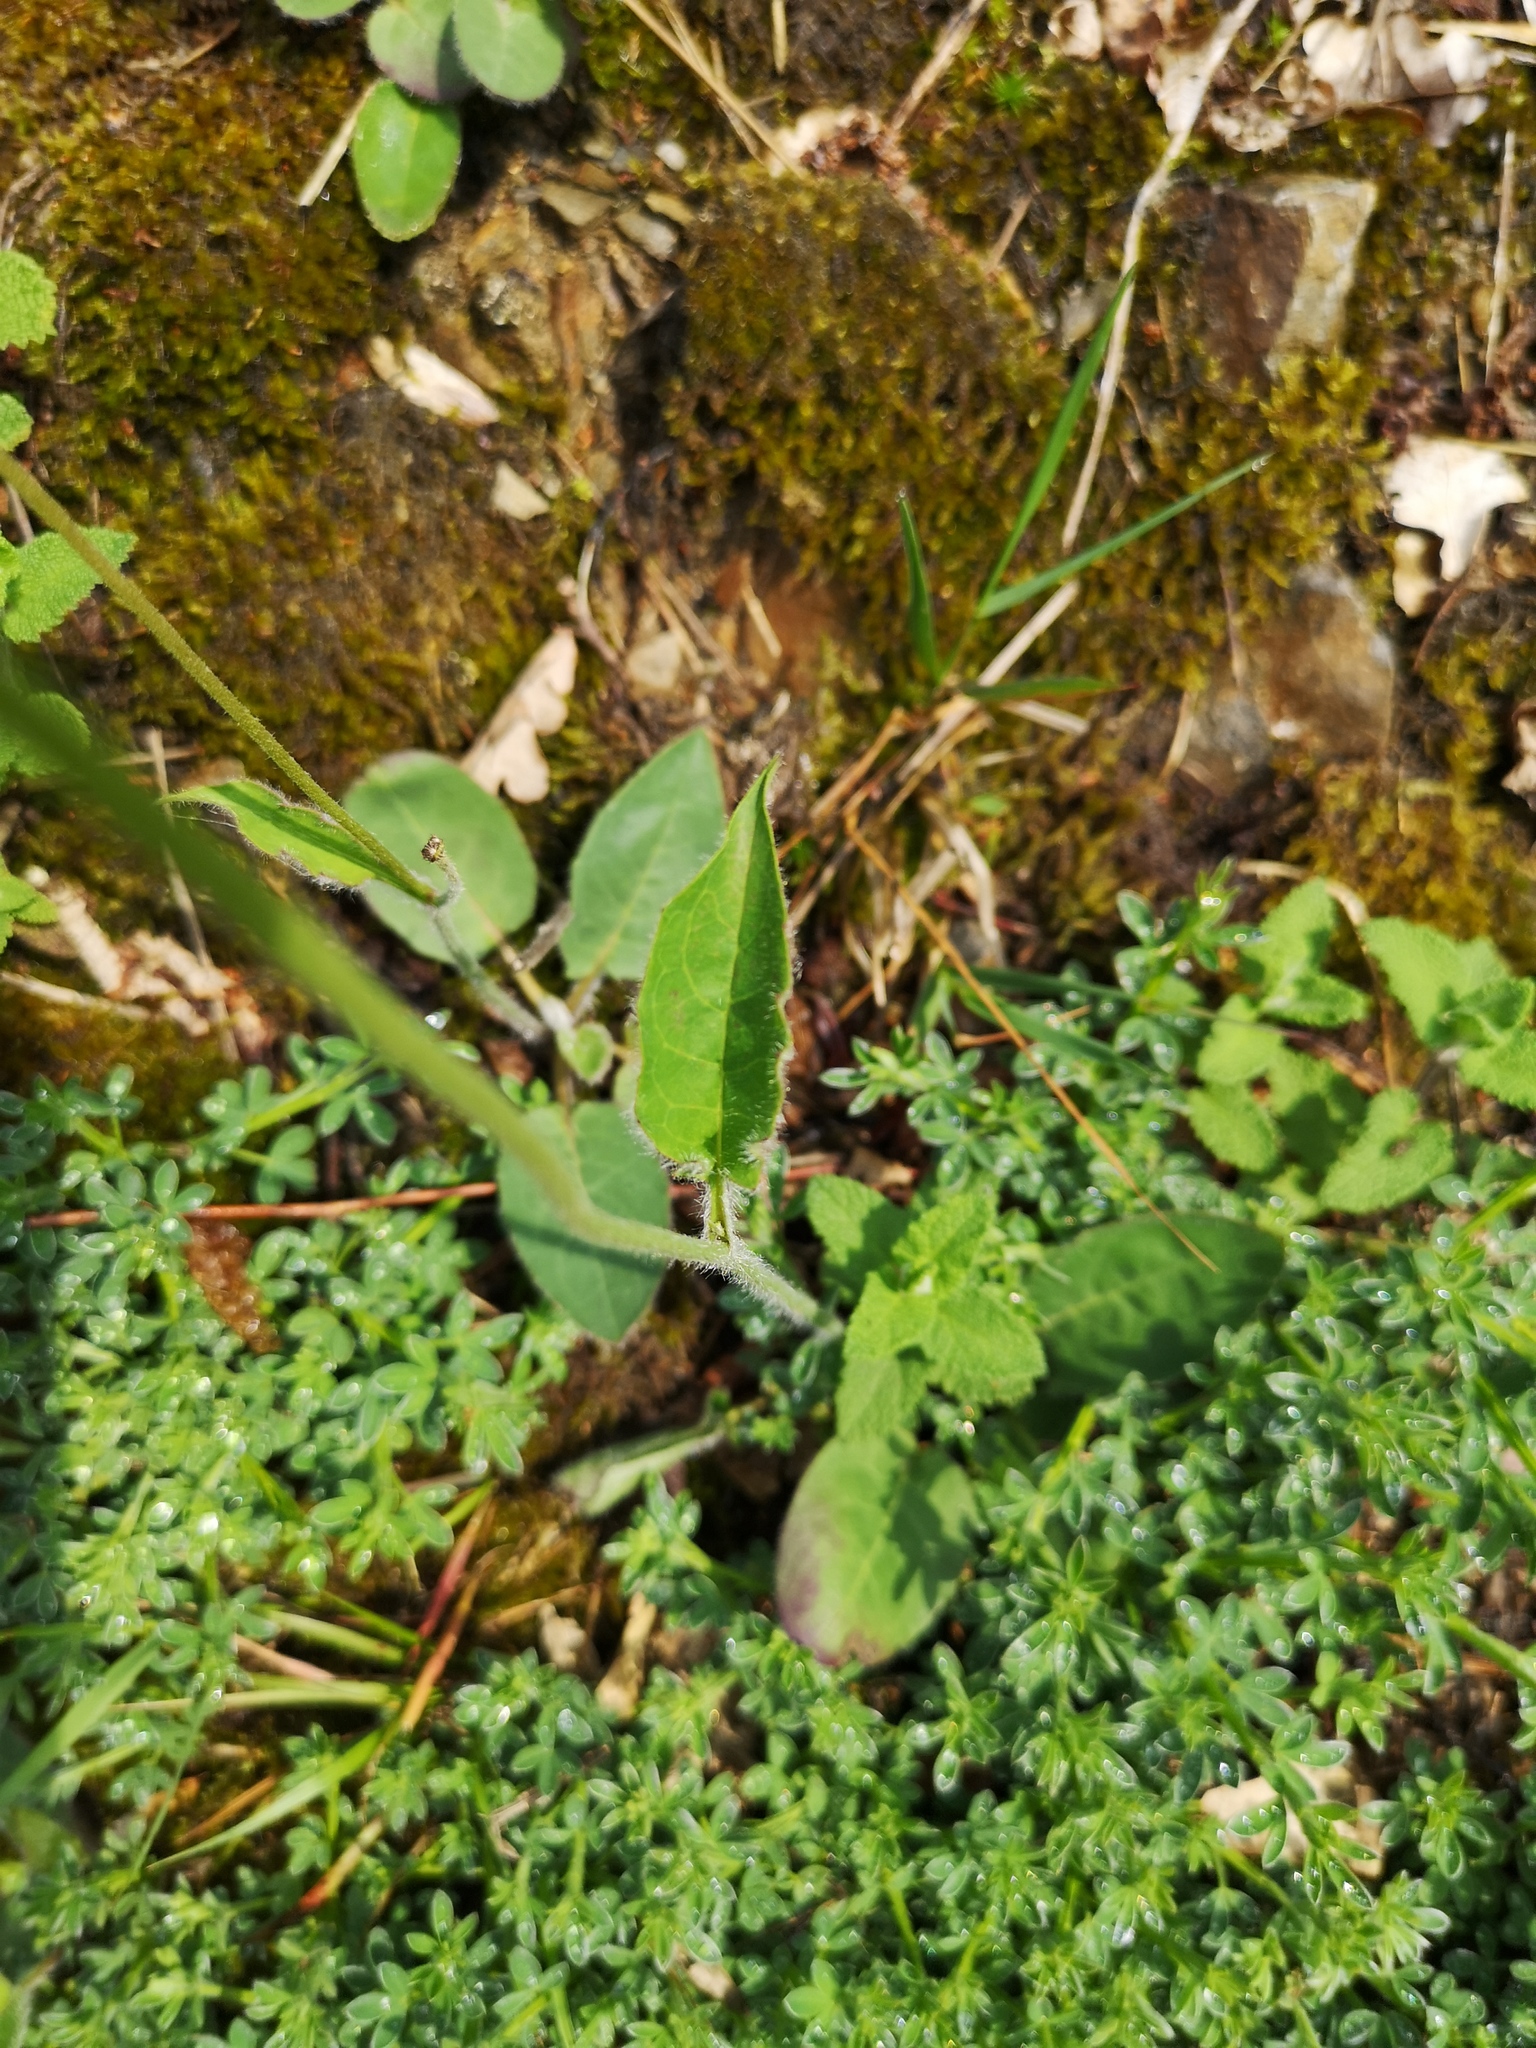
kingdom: Plantae
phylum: Tracheophyta
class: Magnoliopsida
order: Asterales
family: Asteraceae
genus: Hieracium
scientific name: Hieracium murorum
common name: Wall hawkweed
